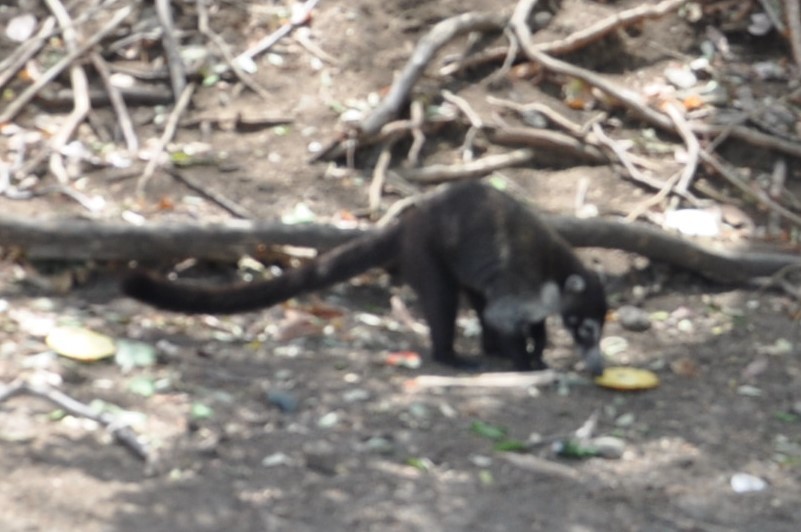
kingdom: Animalia
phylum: Chordata
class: Mammalia
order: Carnivora
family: Procyonidae
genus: Nasua
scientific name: Nasua narica
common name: White-nosed coati
